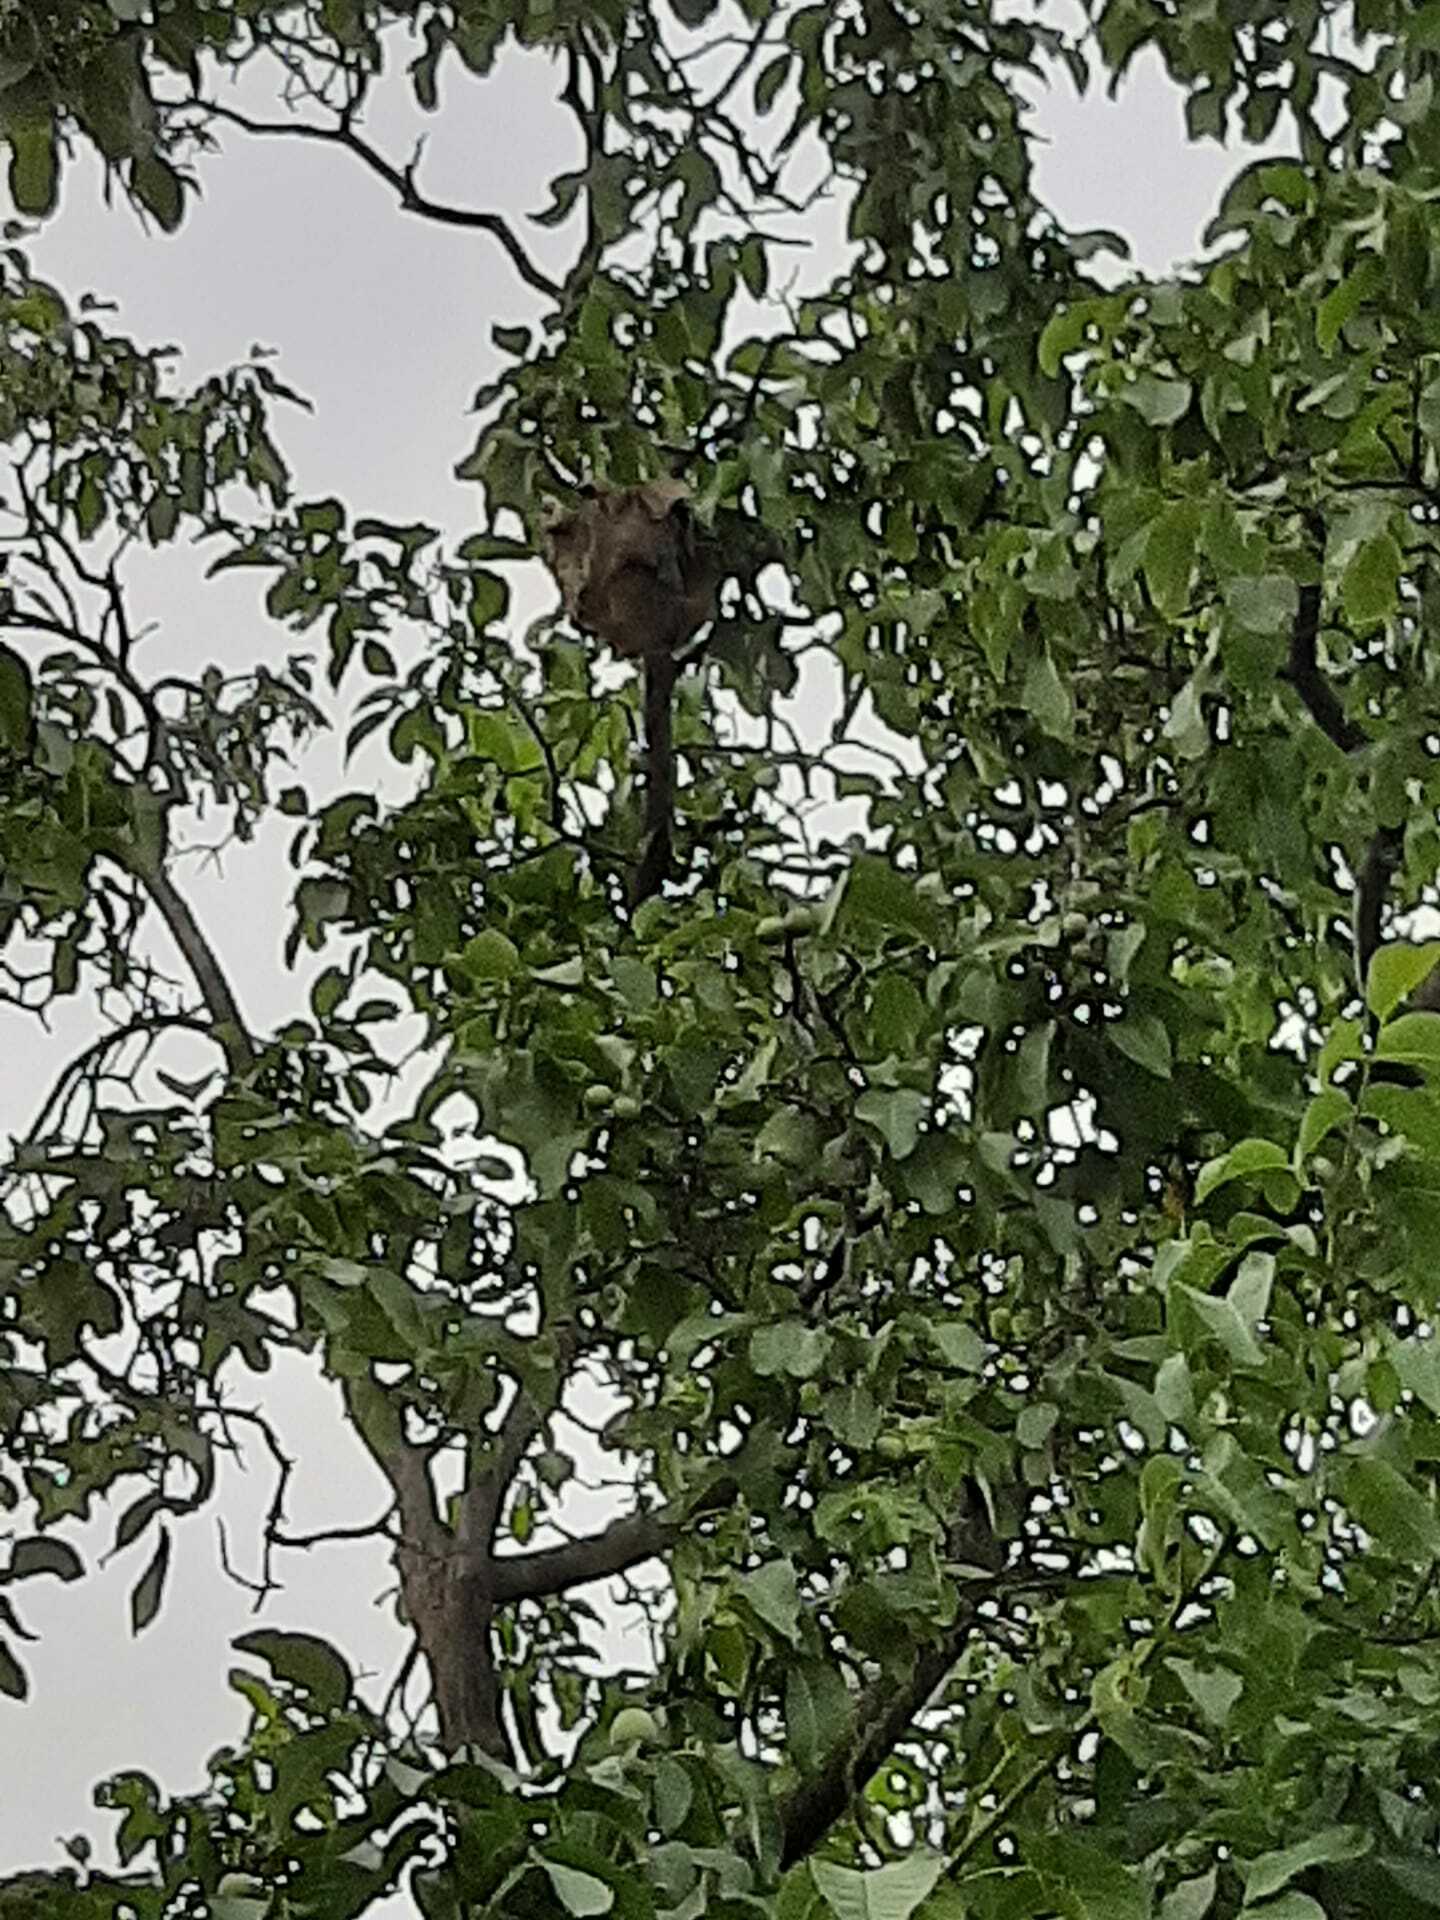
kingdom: Animalia
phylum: Arthropoda
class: Insecta
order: Hymenoptera
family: Vespidae
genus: Vespa
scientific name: Vespa velutina
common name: Asian hornet
